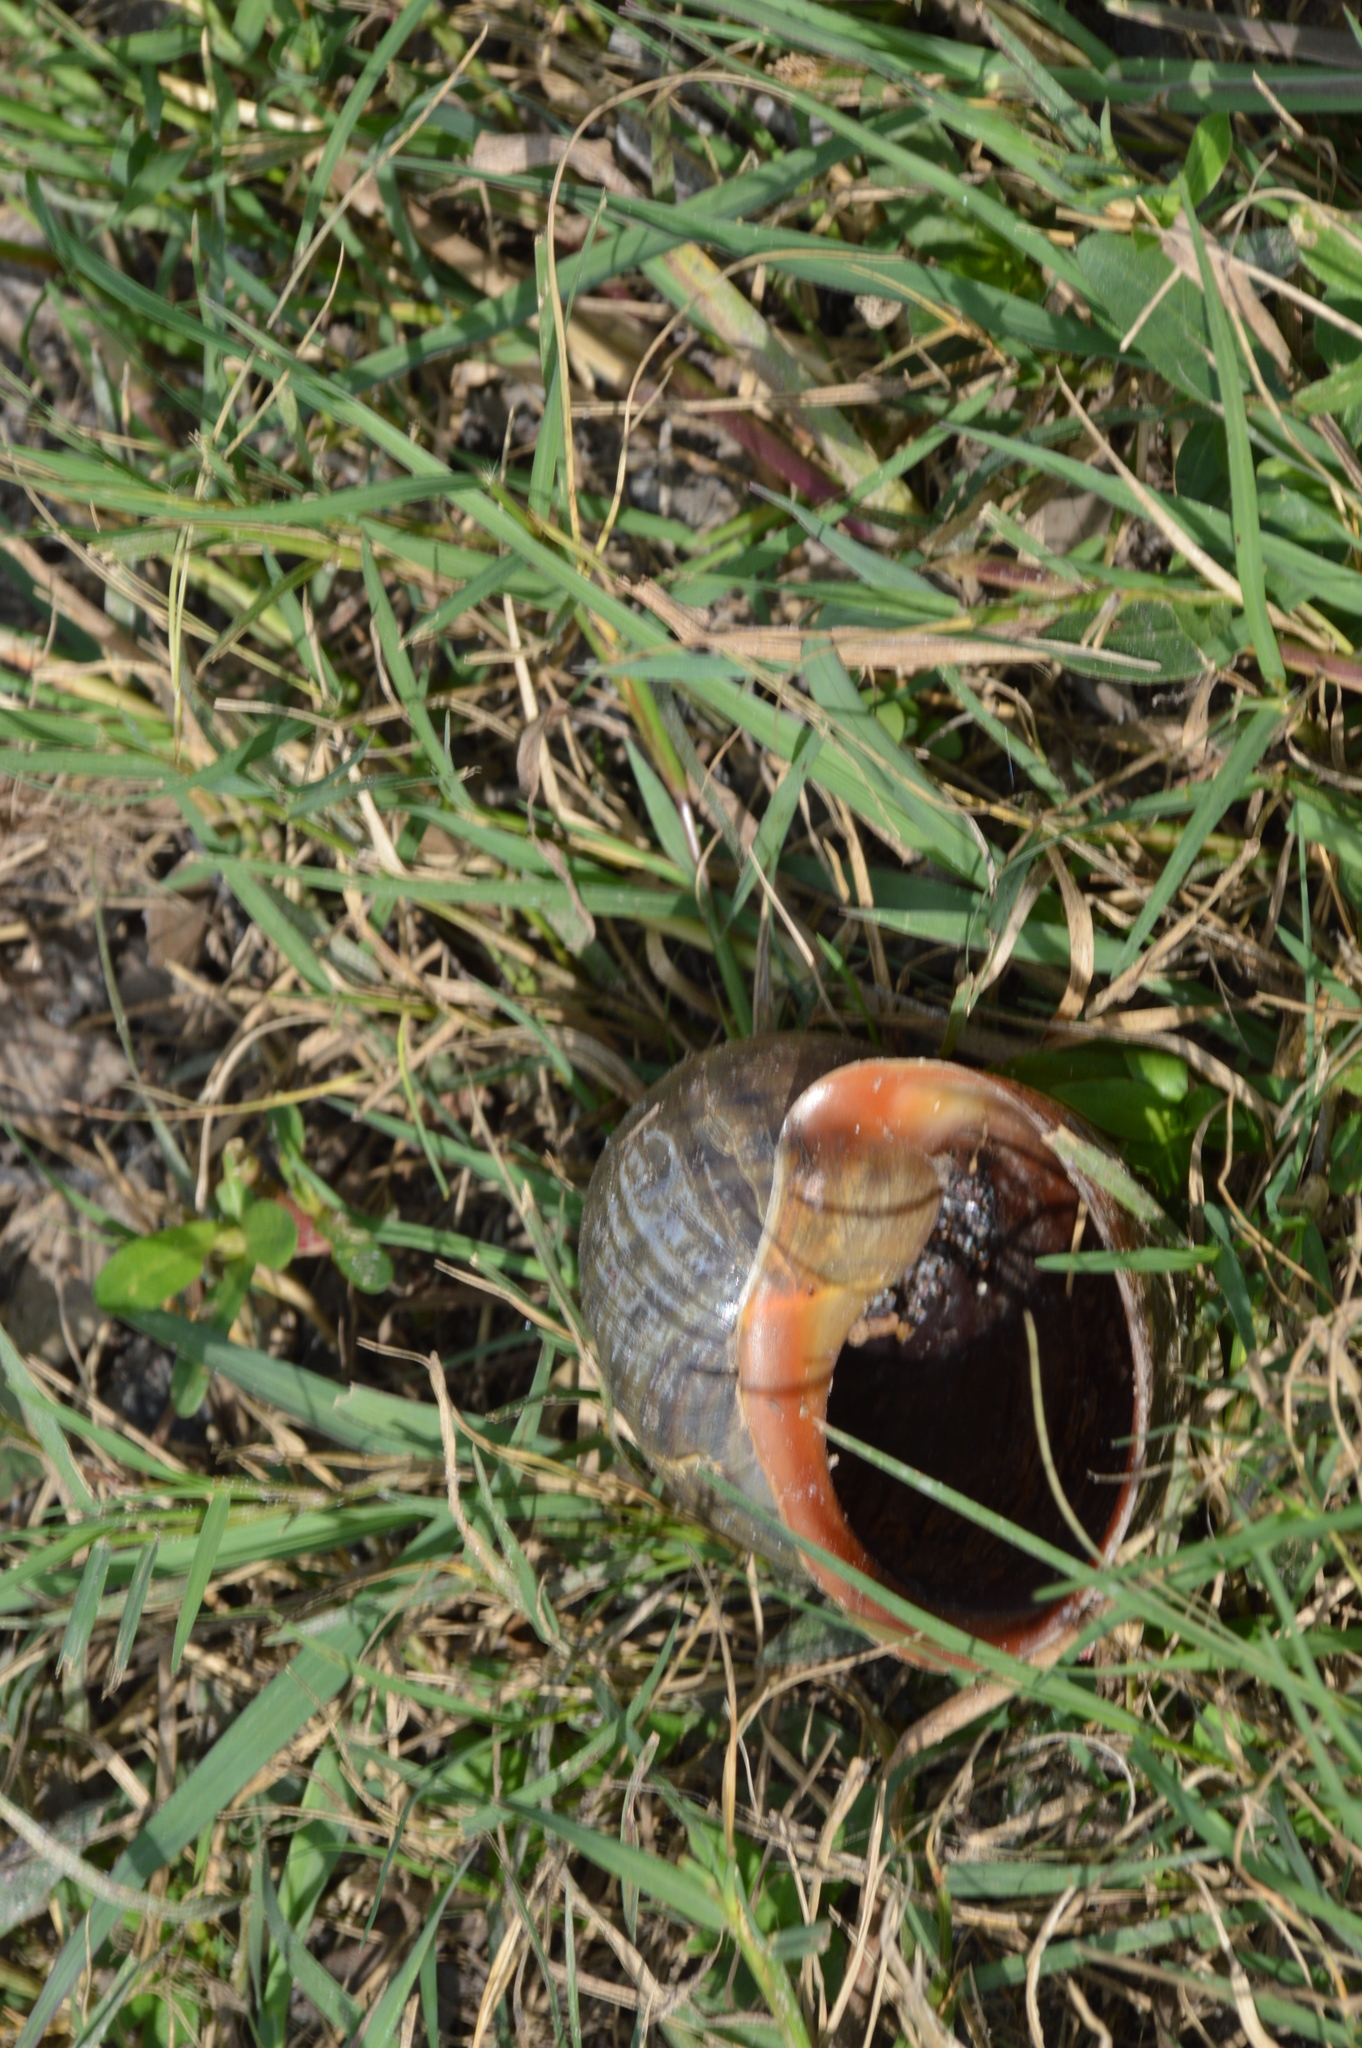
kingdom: Animalia
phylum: Mollusca
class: Gastropoda
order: Architaenioglossa
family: Ampullariidae
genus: Pomacea
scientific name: Pomacea maculata
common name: Giant applesnail
